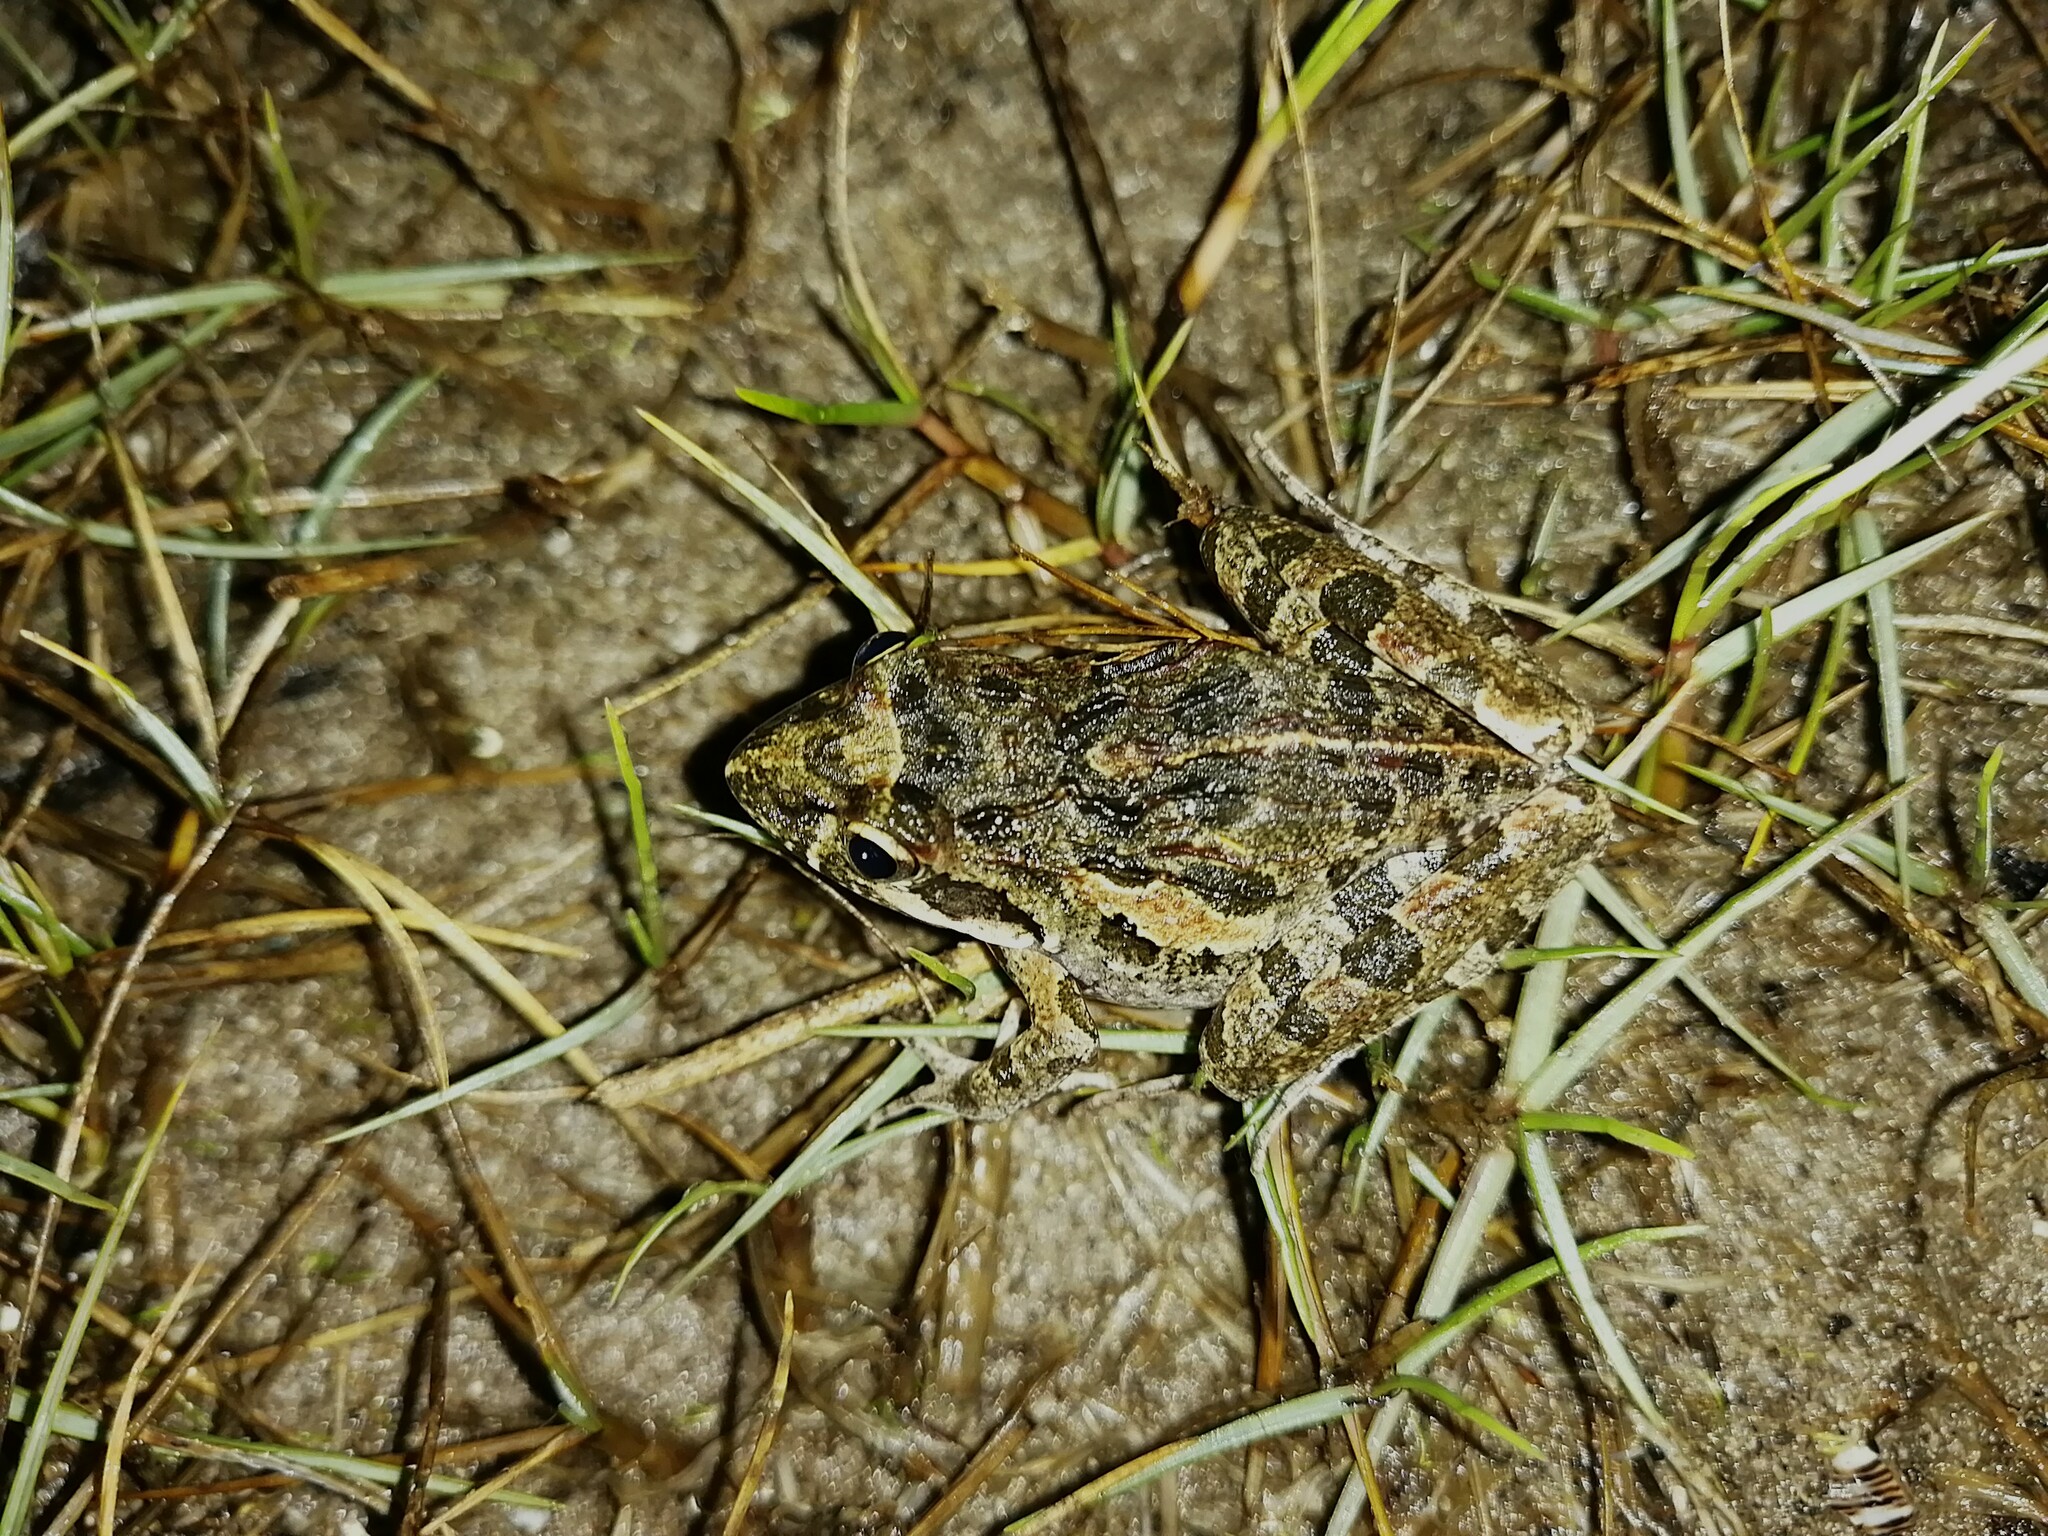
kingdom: Animalia
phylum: Chordata
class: Amphibia
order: Anura
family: Pyxicephalidae
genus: Strongylopus
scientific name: Strongylopus grayii
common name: Gray's stream frog
